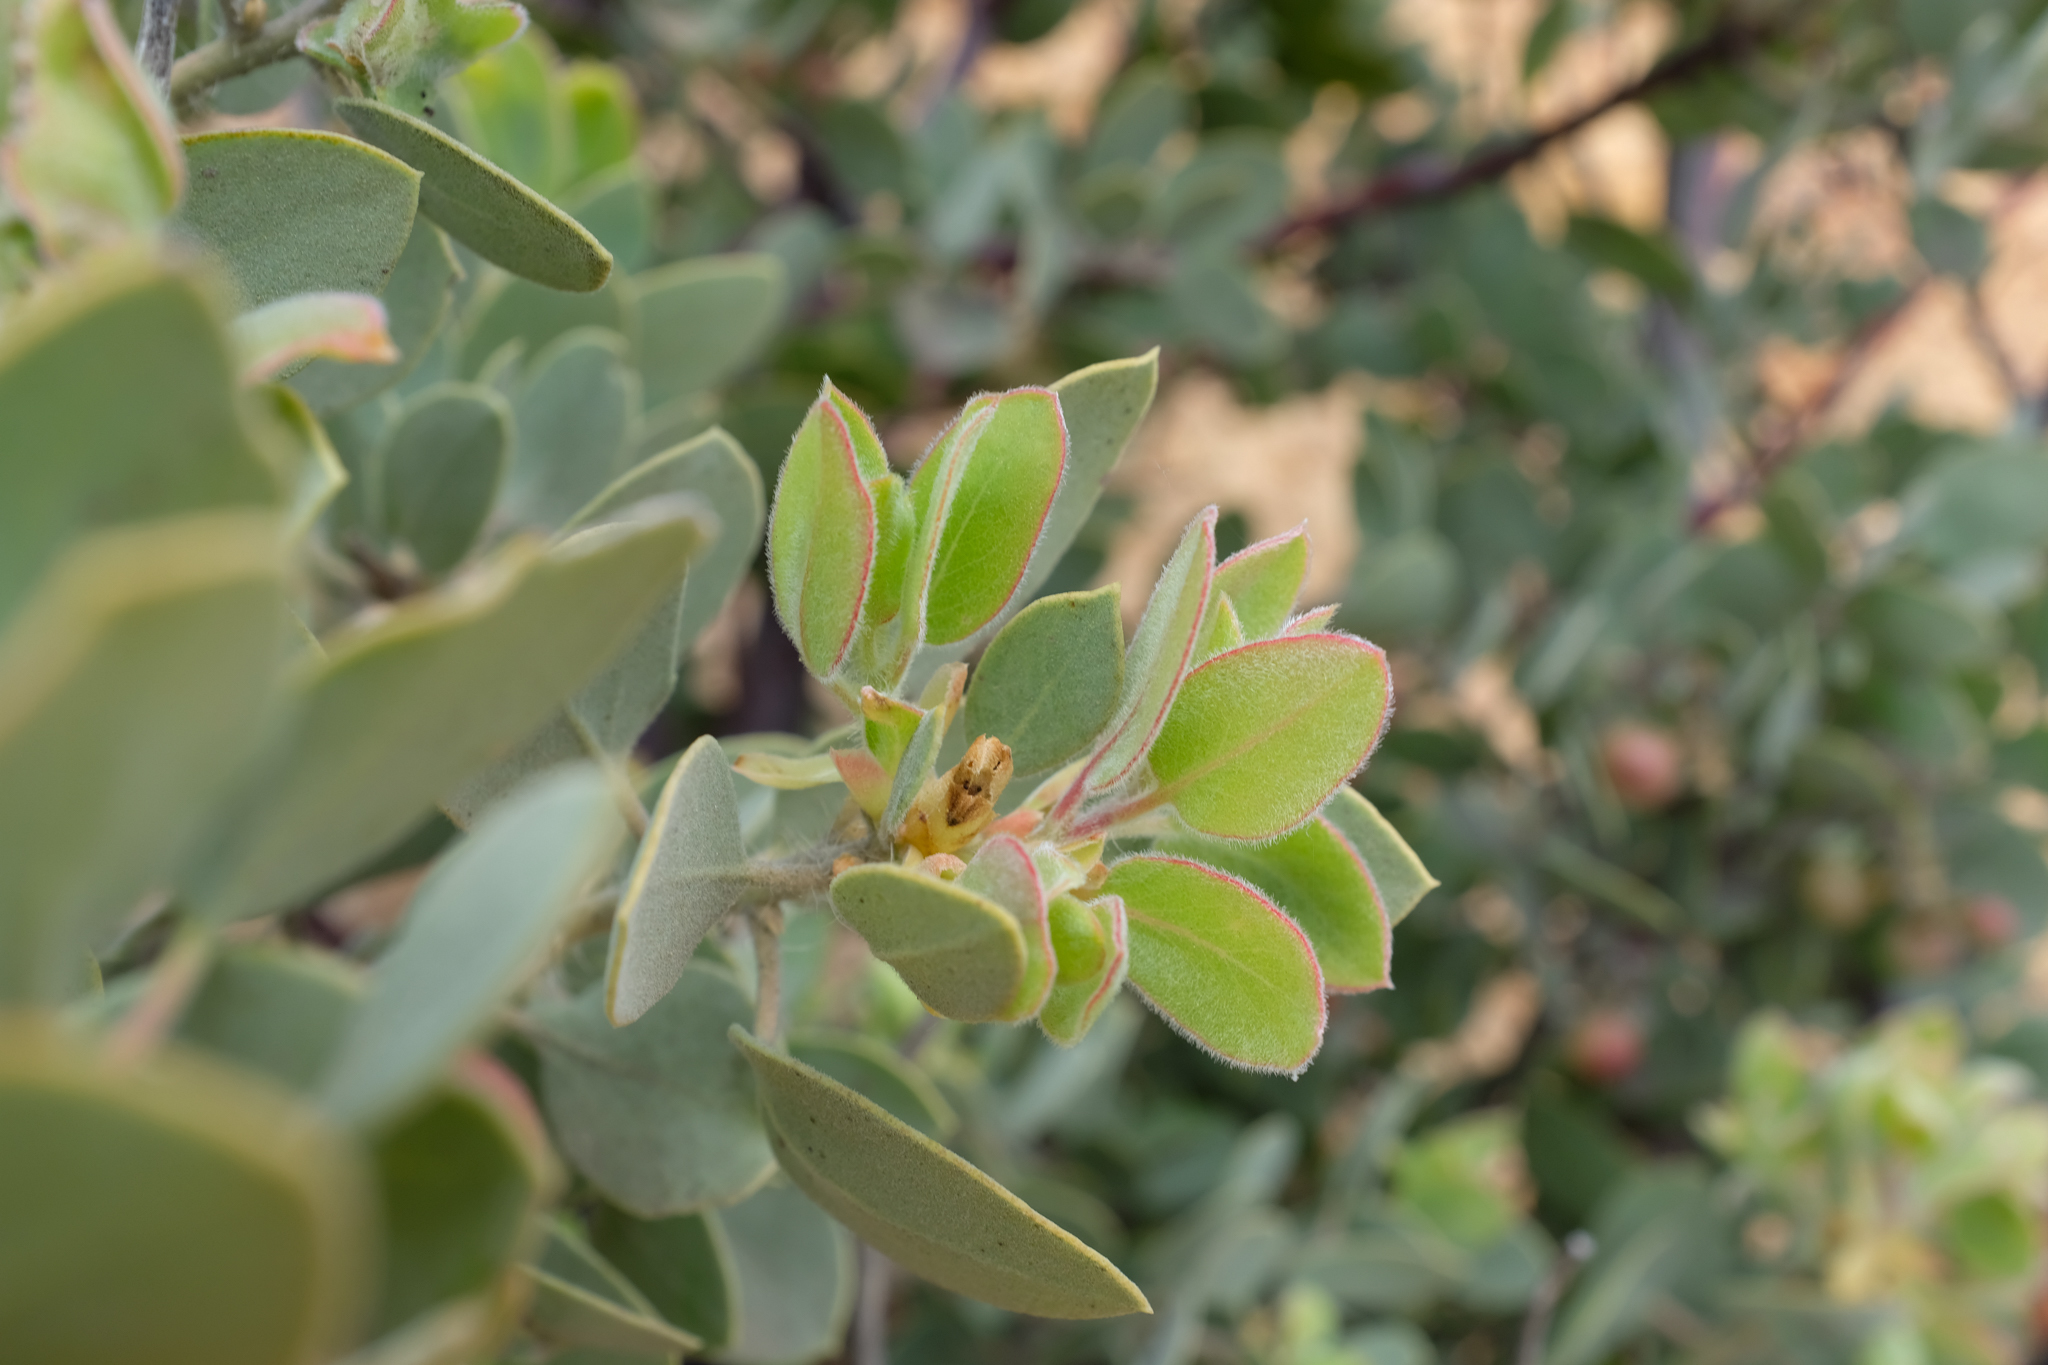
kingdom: Plantae
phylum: Tracheophyta
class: Magnoliopsida
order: Ericales
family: Ericaceae
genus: Arctostaphylos
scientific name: Arctostaphylos pilosula
